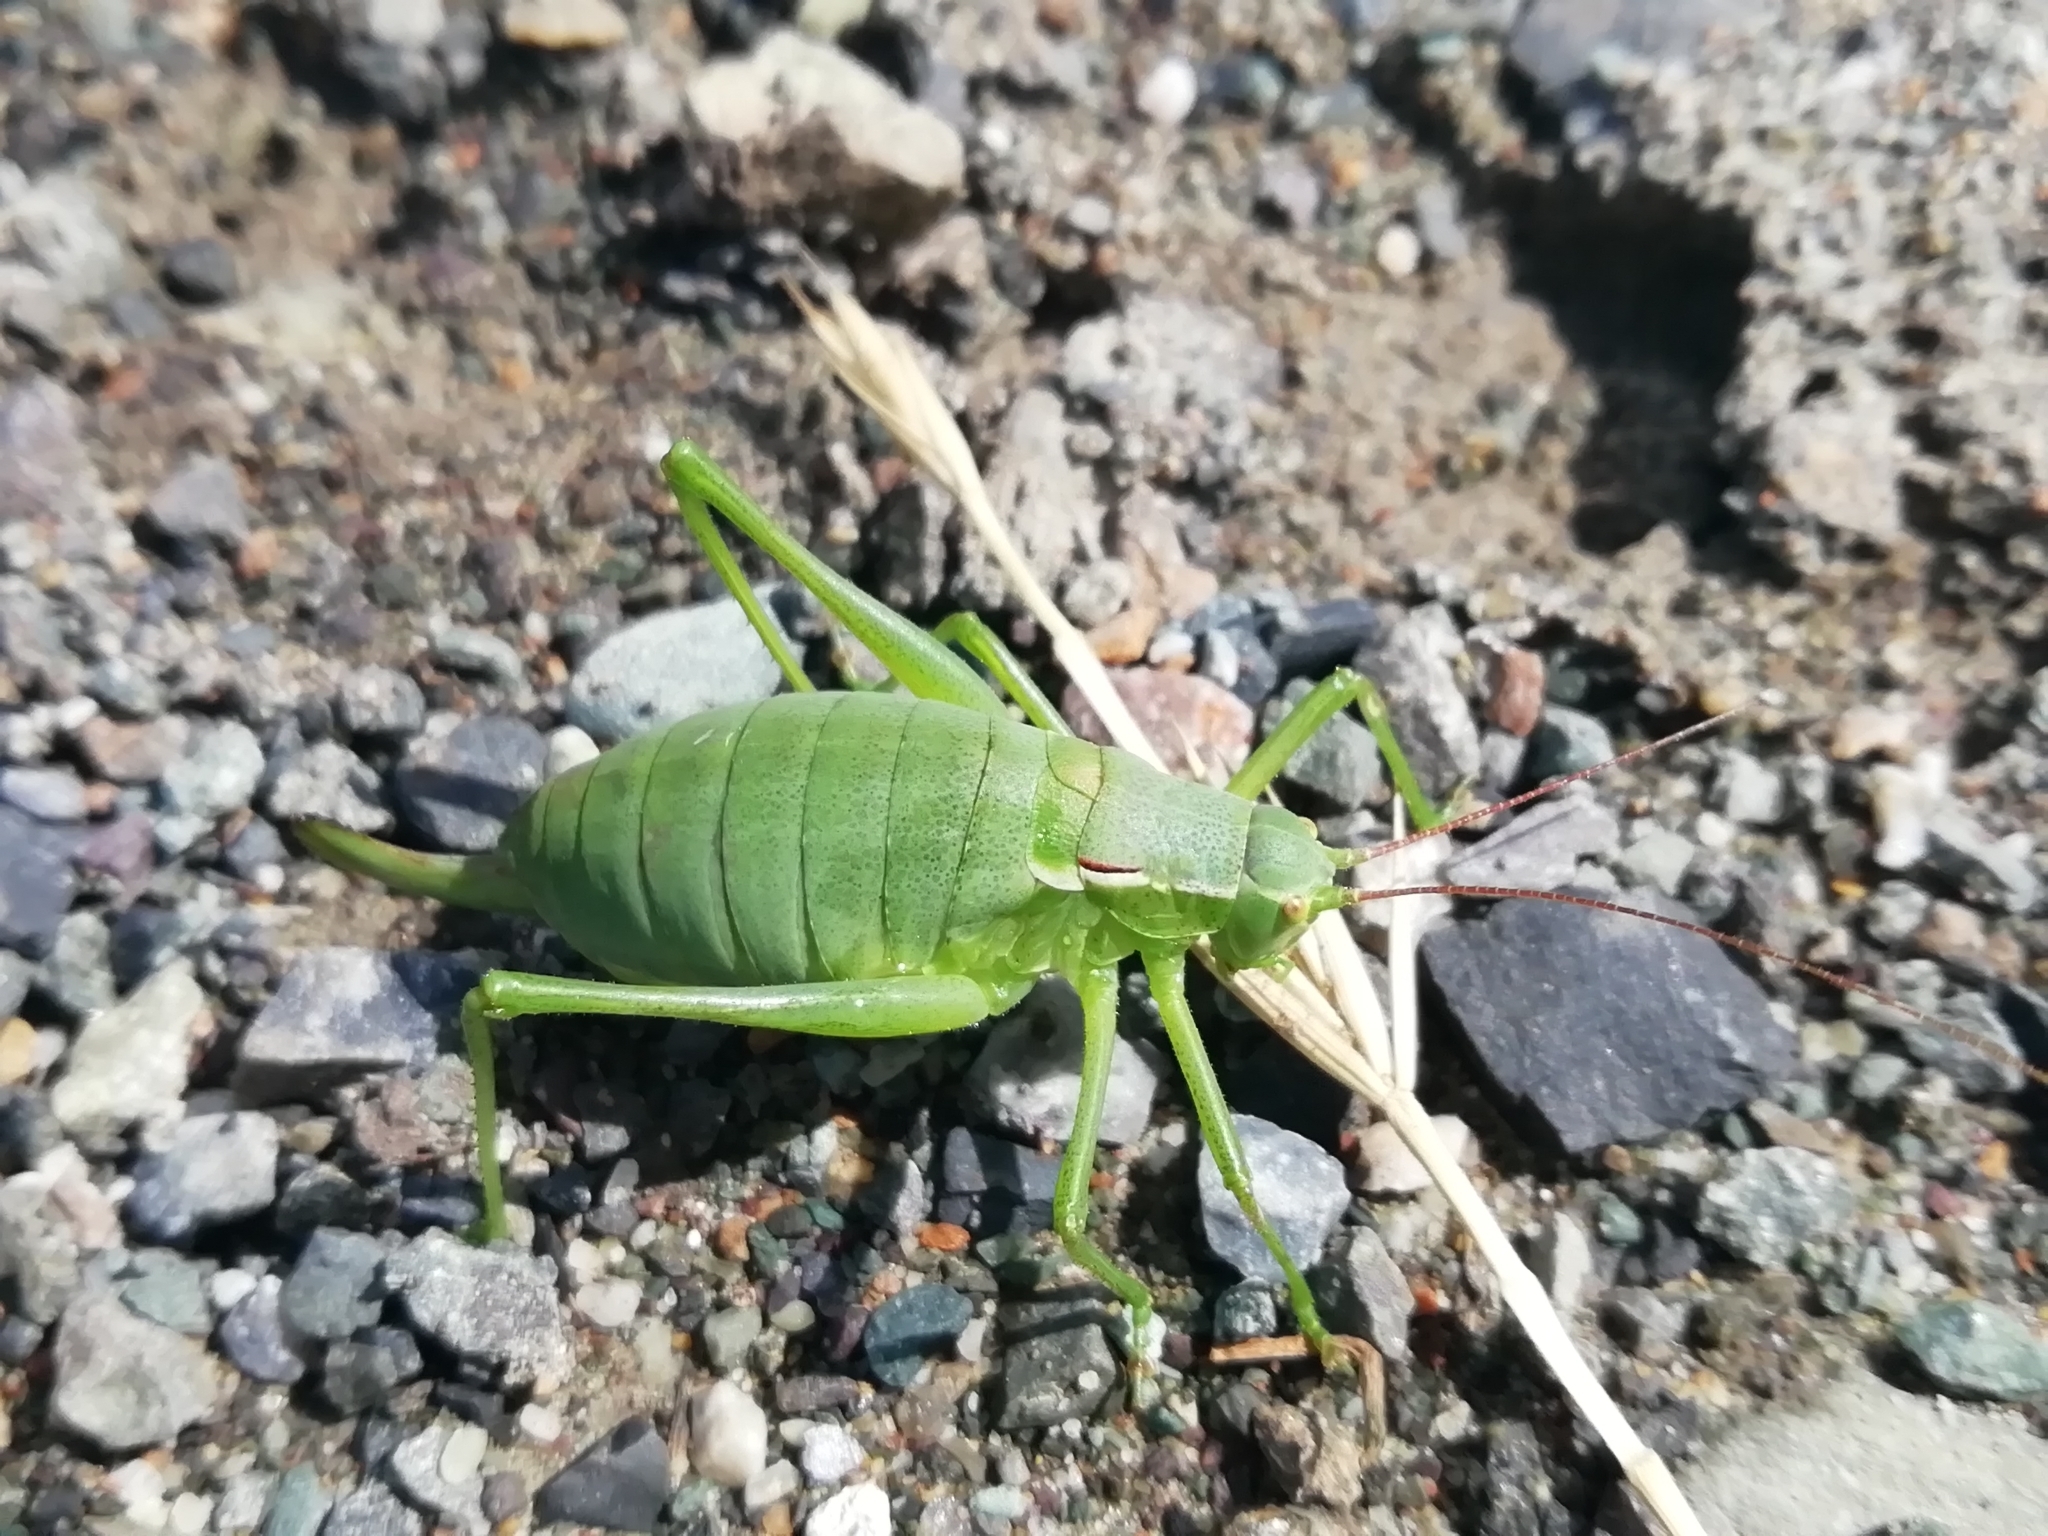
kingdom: Animalia
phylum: Arthropoda
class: Insecta
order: Orthoptera
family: Tettigoniidae
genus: Isophya
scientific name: Isophya altaica
